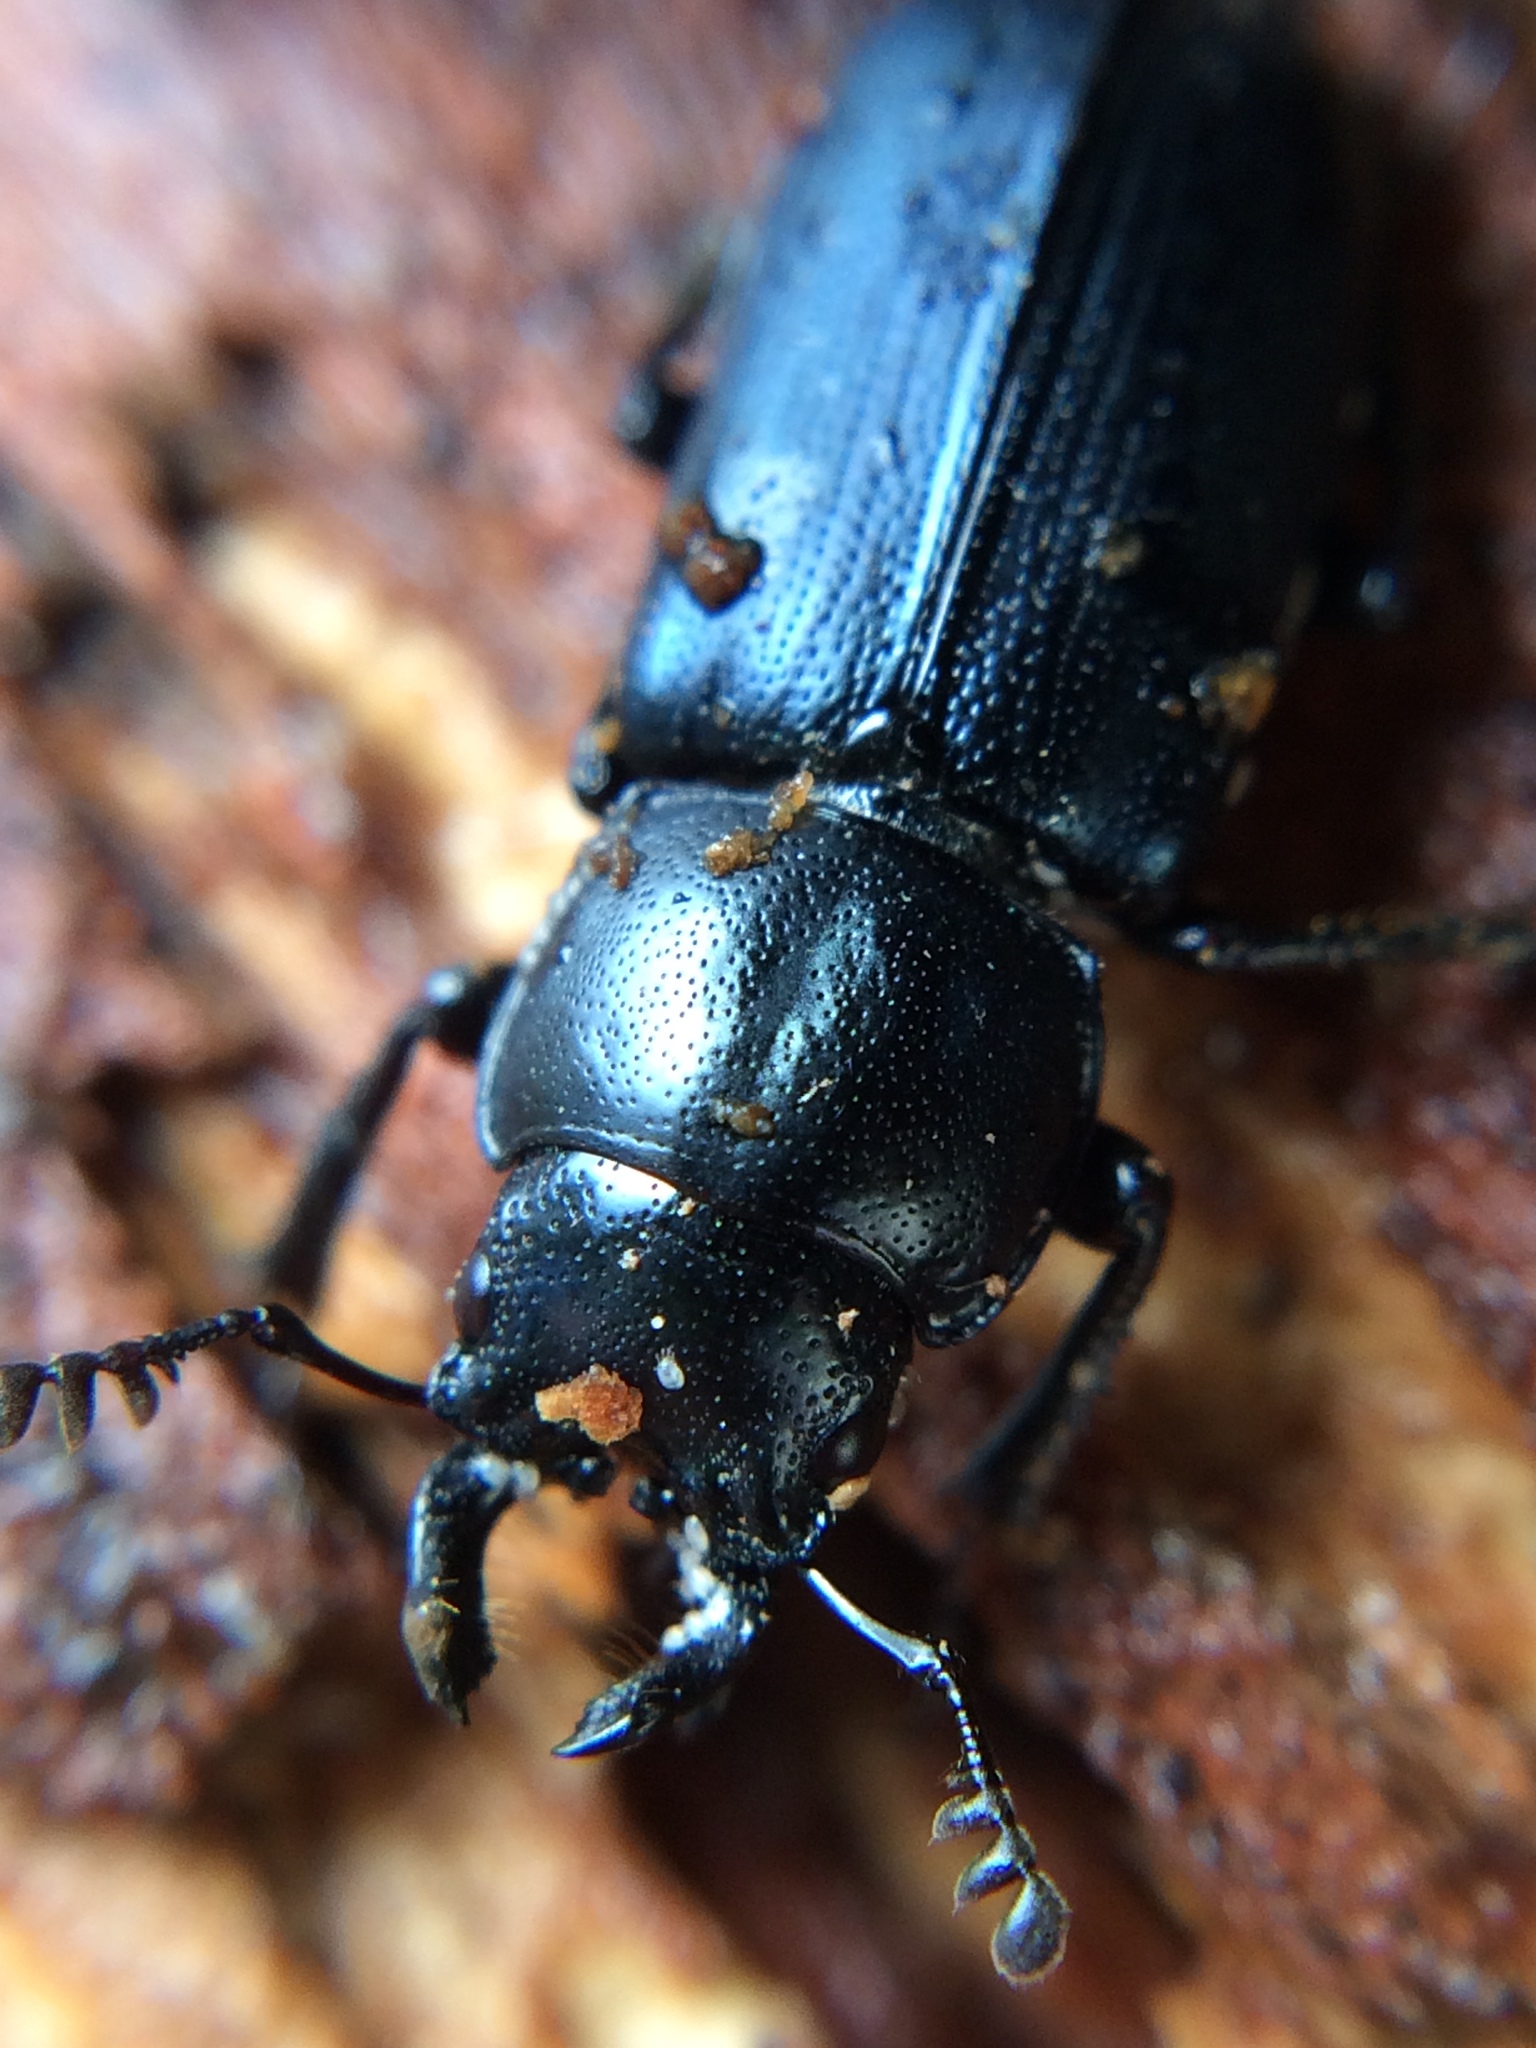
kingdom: Animalia
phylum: Arthropoda
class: Insecta
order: Coleoptera
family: Lucanidae
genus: Platycerus
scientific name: Platycerus oregonensis
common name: Oregon stag beetle
